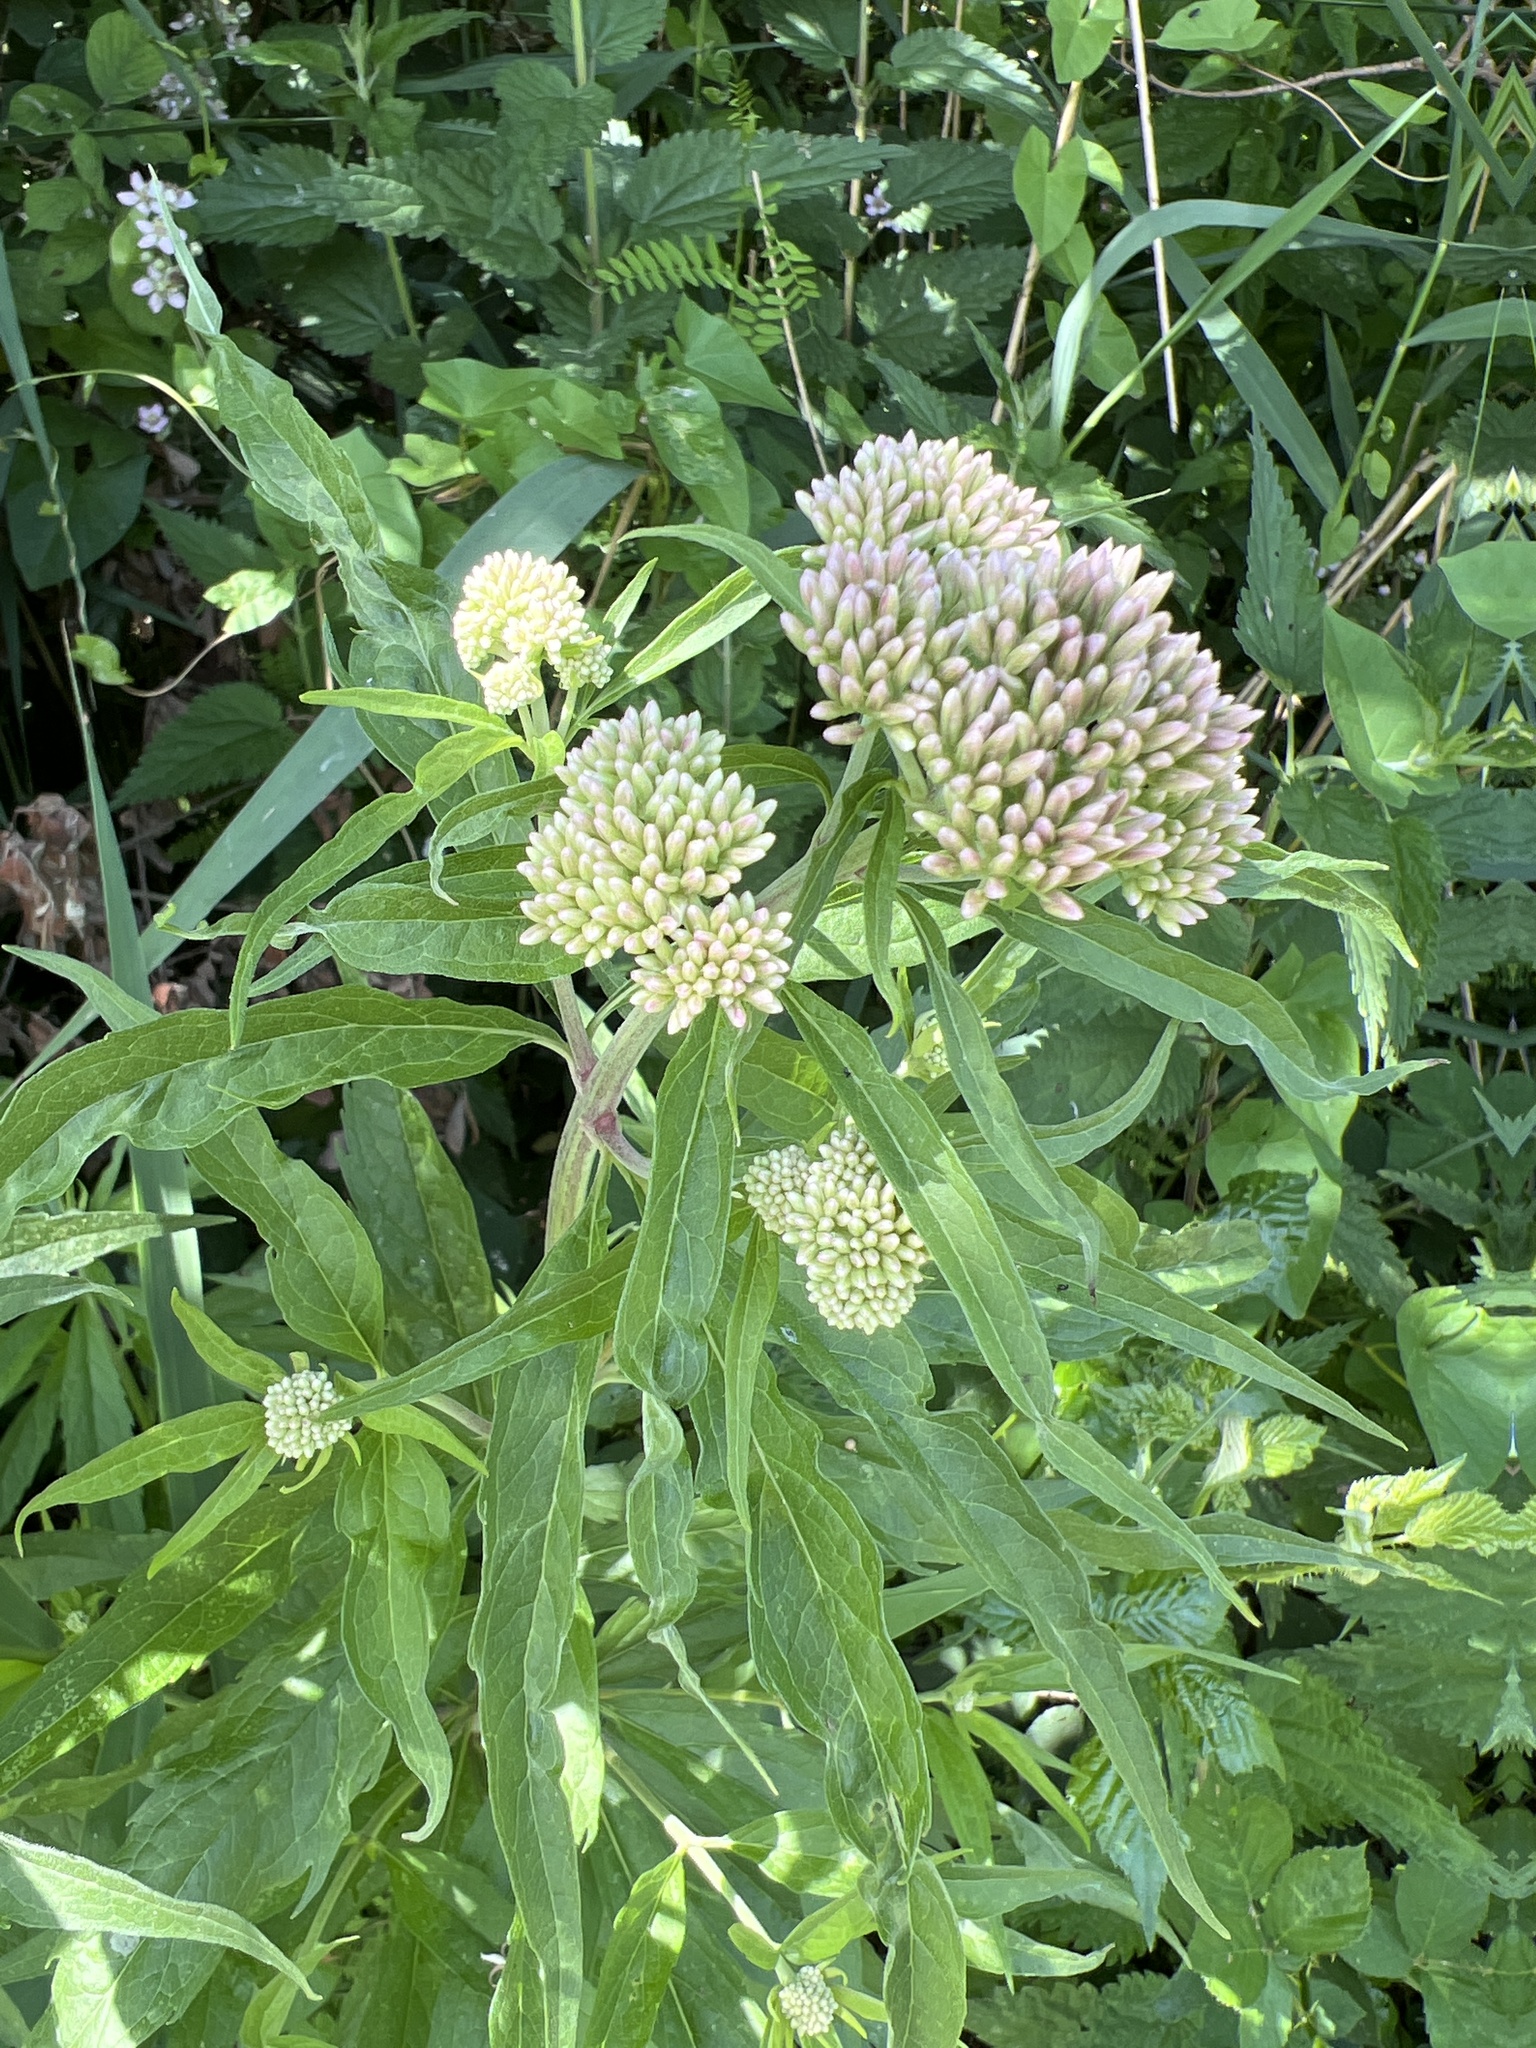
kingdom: Plantae
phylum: Tracheophyta
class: Magnoliopsida
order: Asterales
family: Asteraceae
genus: Eupatorium
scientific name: Eupatorium cannabinum
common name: Hemp-agrimony
